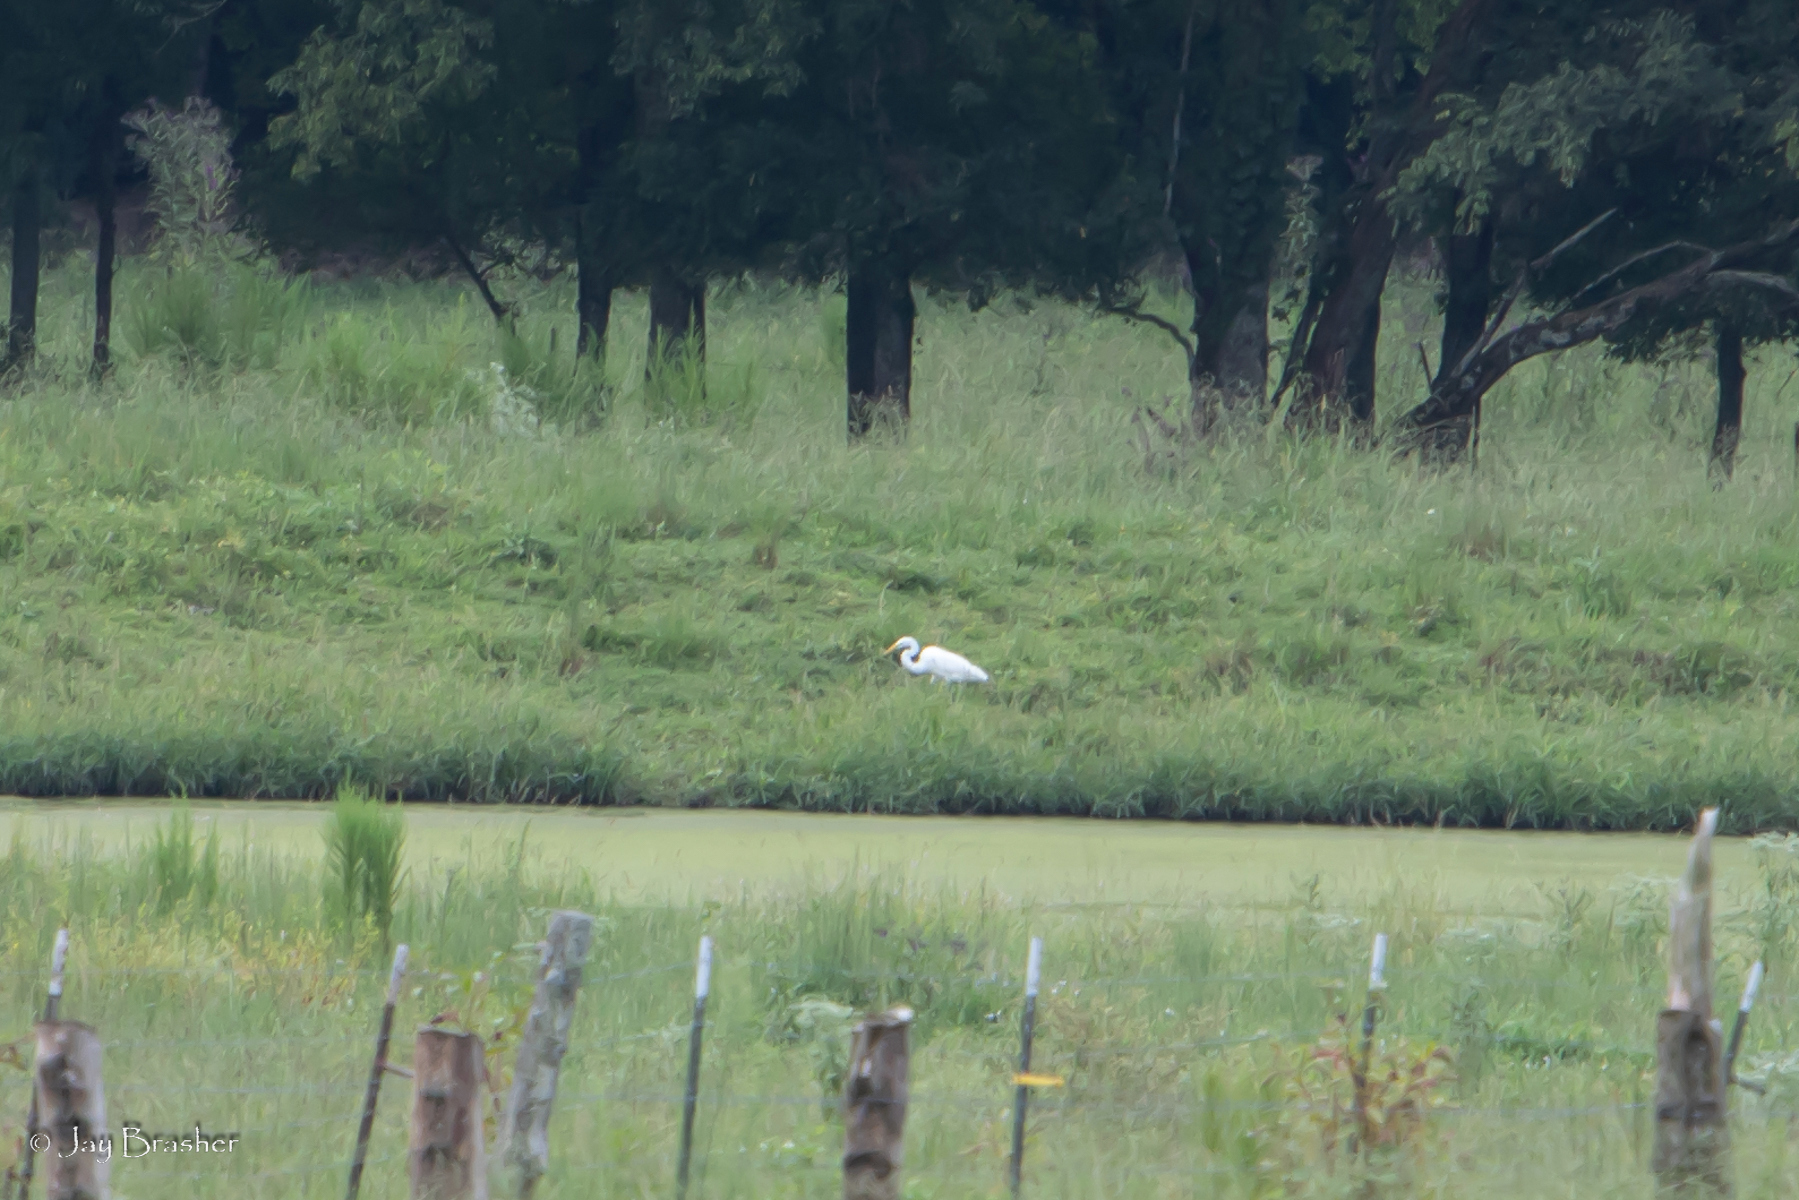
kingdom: Animalia
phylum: Chordata
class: Aves
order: Pelecaniformes
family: Ardeidae
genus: Ardea
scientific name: Ardea alba
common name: Great egret
